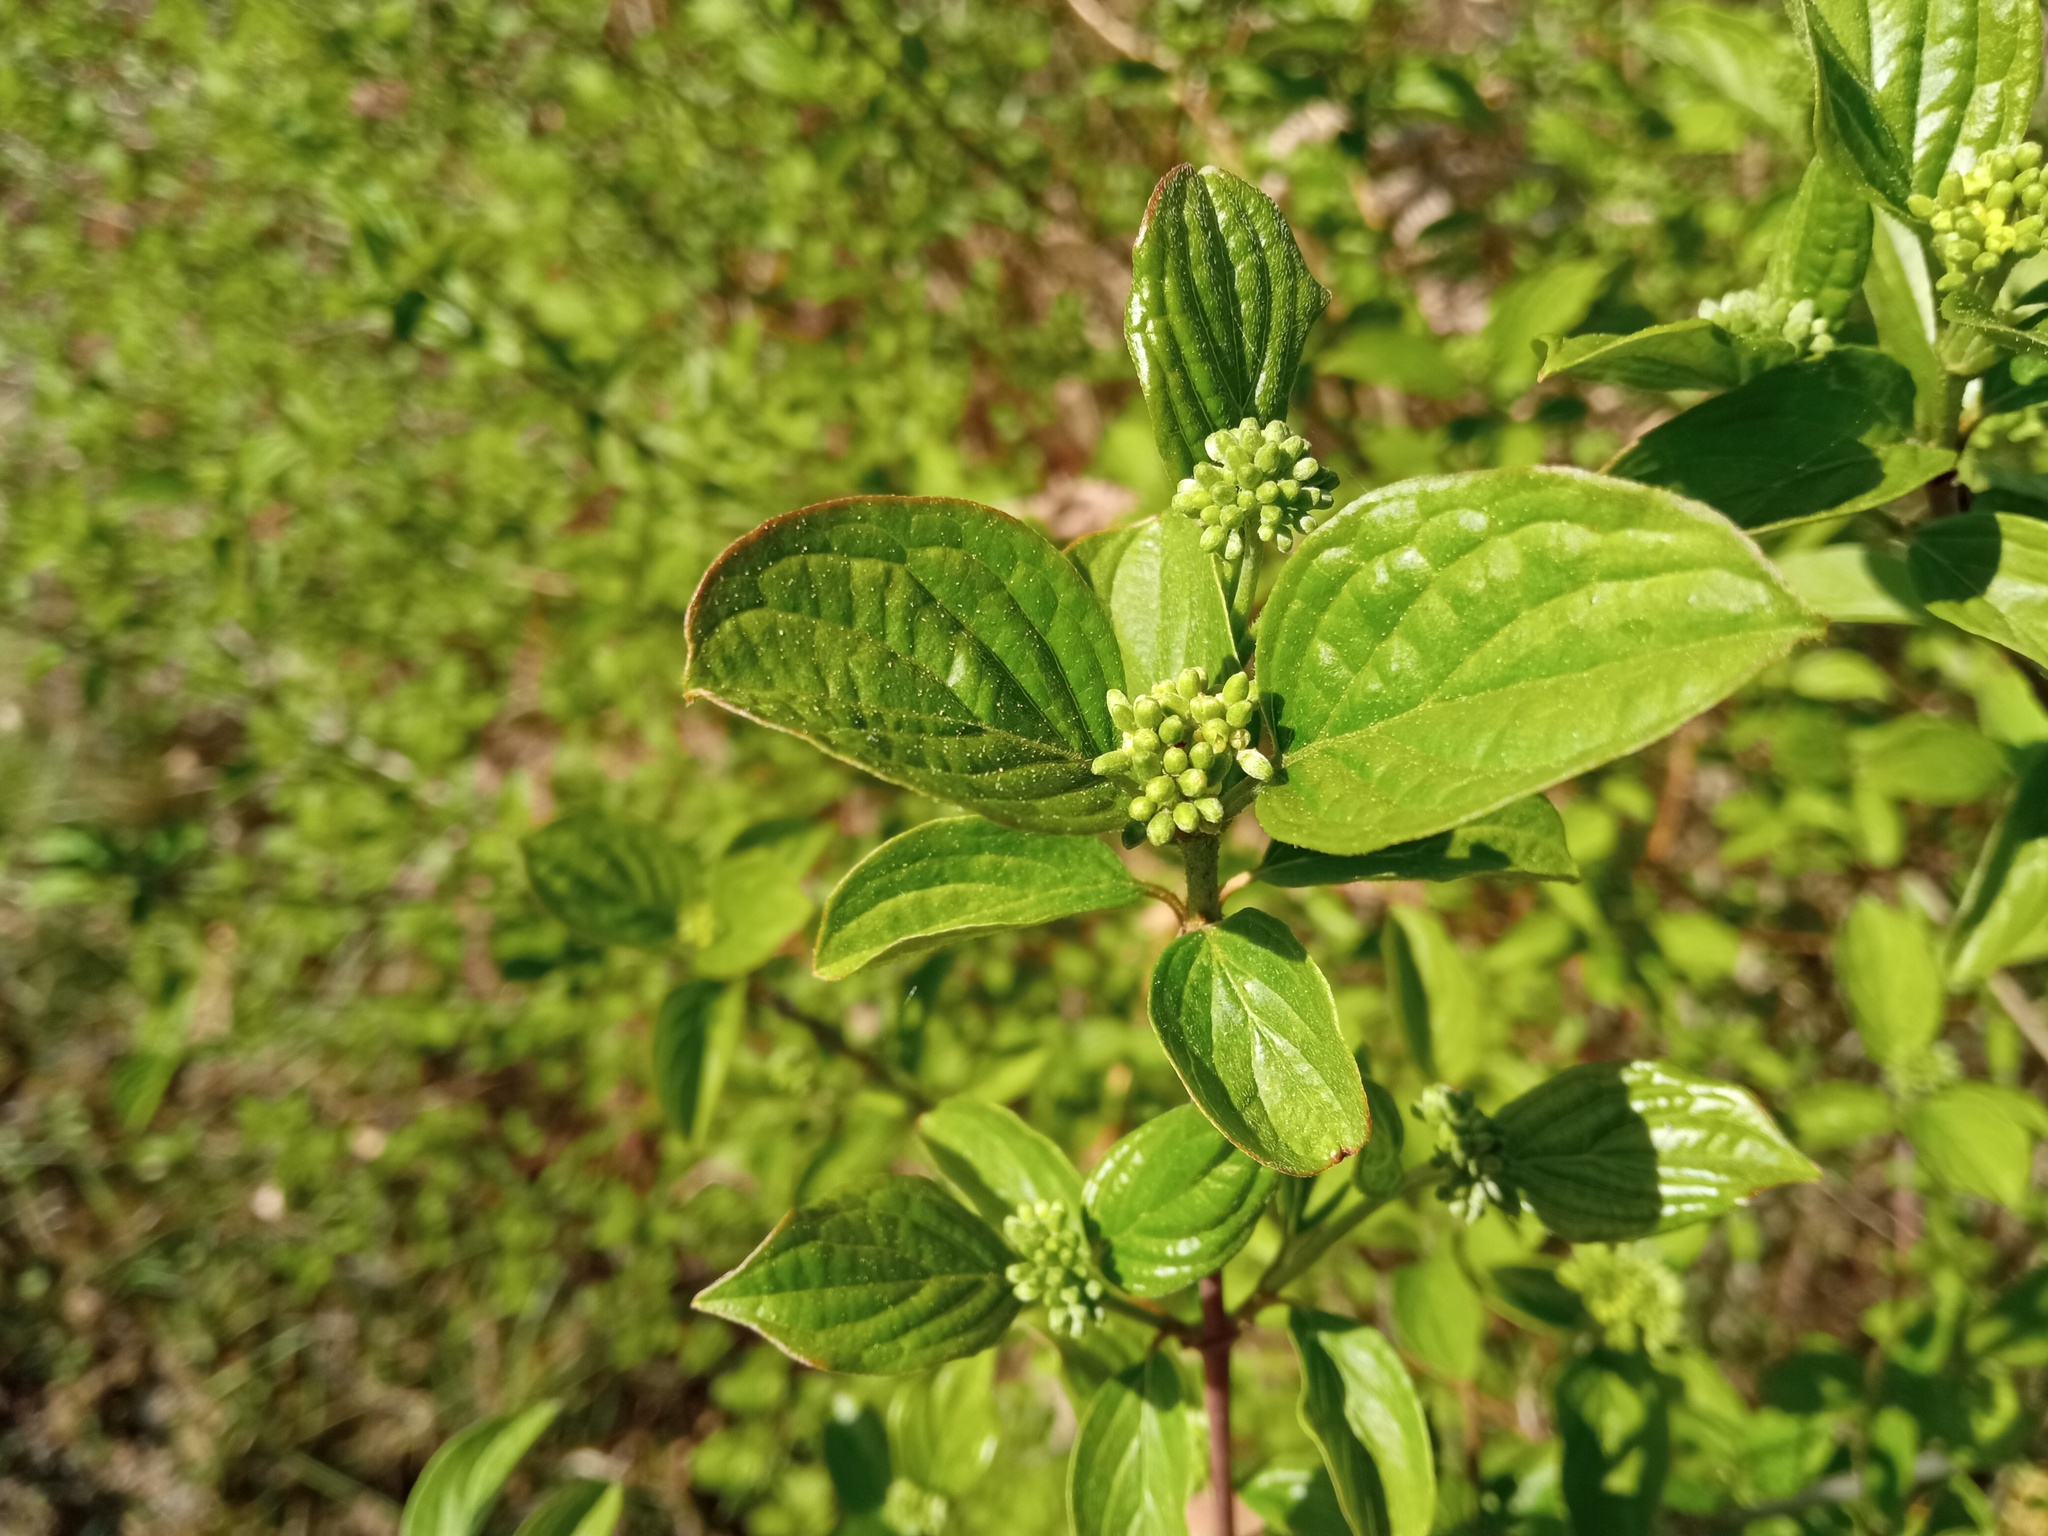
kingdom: Plantae
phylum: Tracheophyta
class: Magnoliopsida
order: Cornales
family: Cornaceae
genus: Cornus
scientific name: Cornus sanguinea
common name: Dogwood
